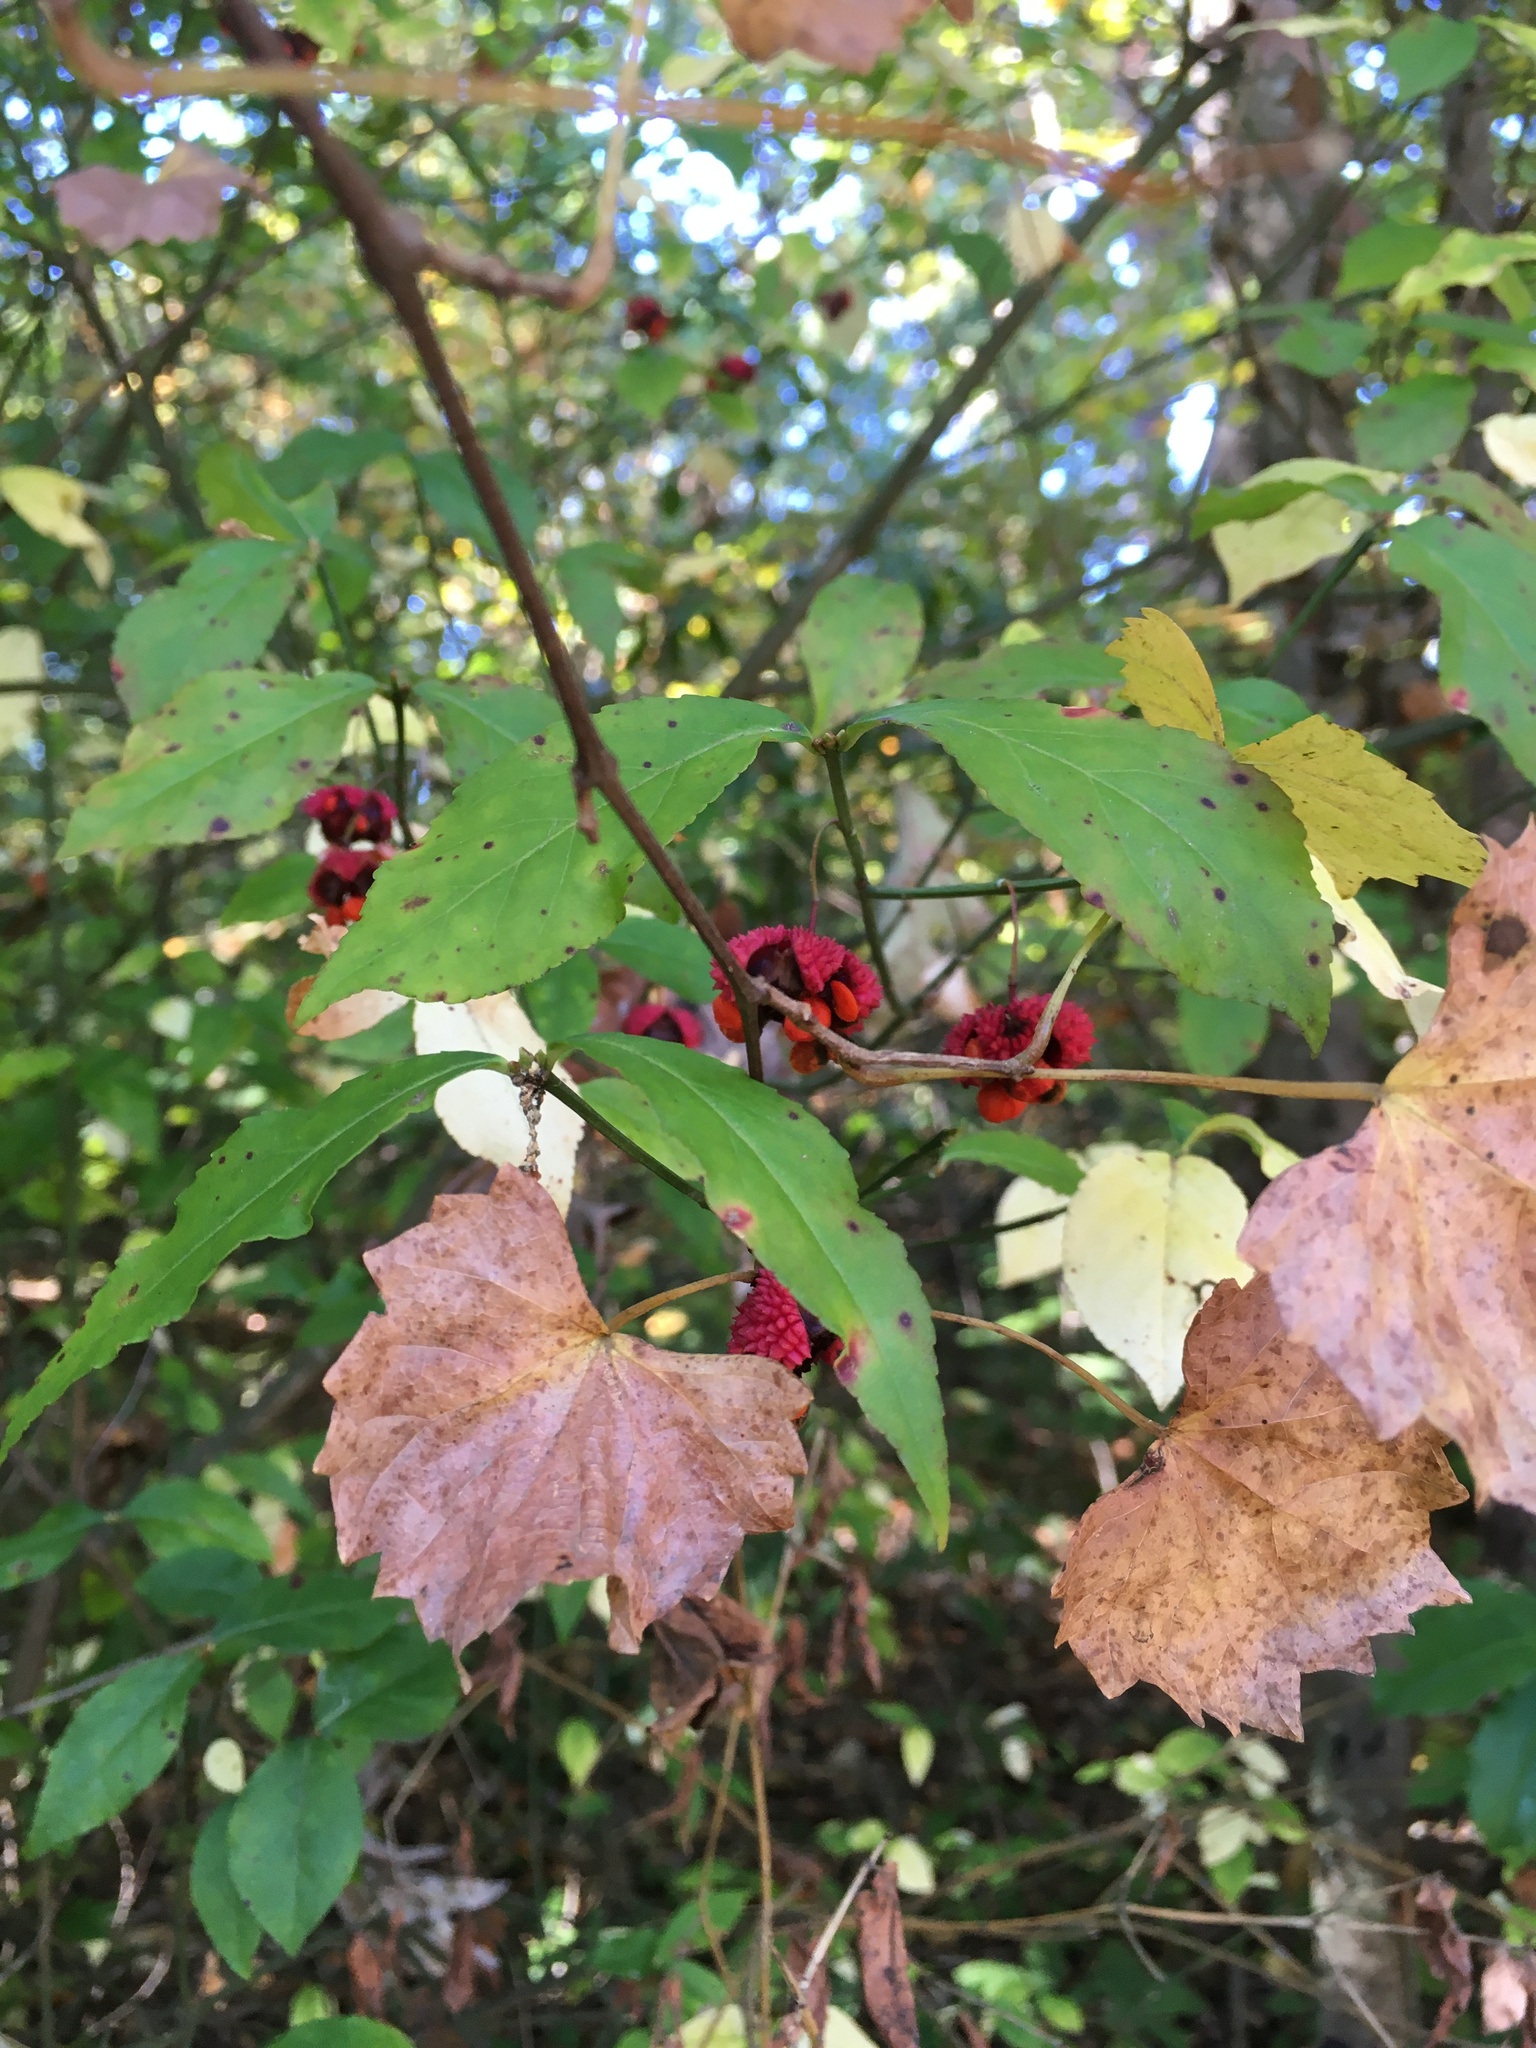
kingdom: Plantae
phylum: Tracheophyta
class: Magnoliopsida
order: Celastrales
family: Celastraceae
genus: Euonymus
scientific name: Euonymus americanus
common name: Bursting-heart
